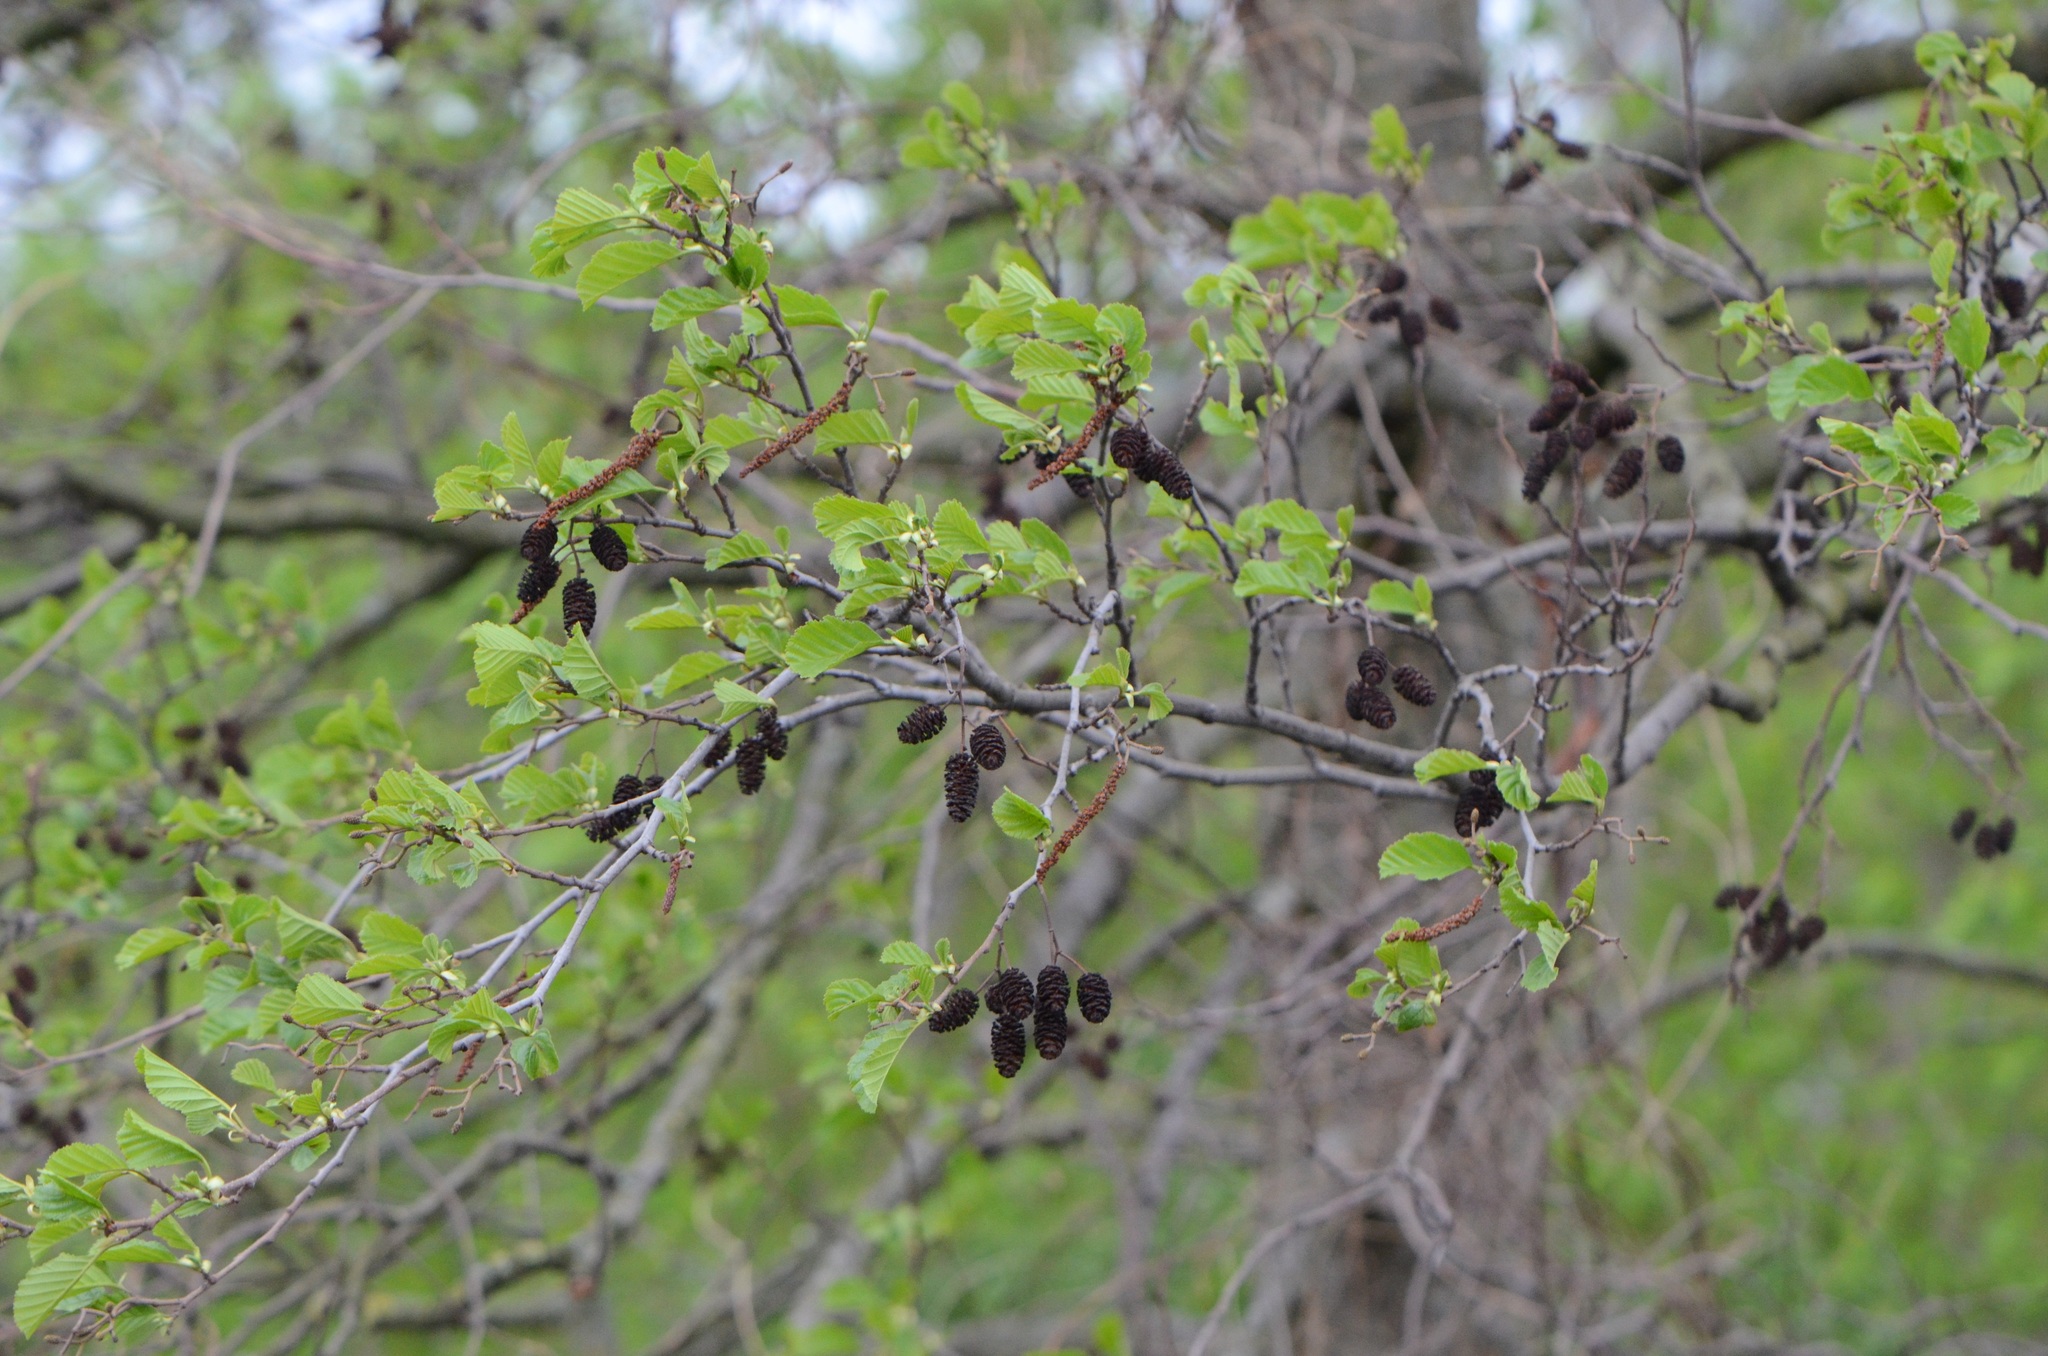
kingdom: Plantae
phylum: Tracheophyta
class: Magnoliopsida
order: Fagales
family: Betulaceae
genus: Alnus
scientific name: Alnus glutinosa
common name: Black alder
